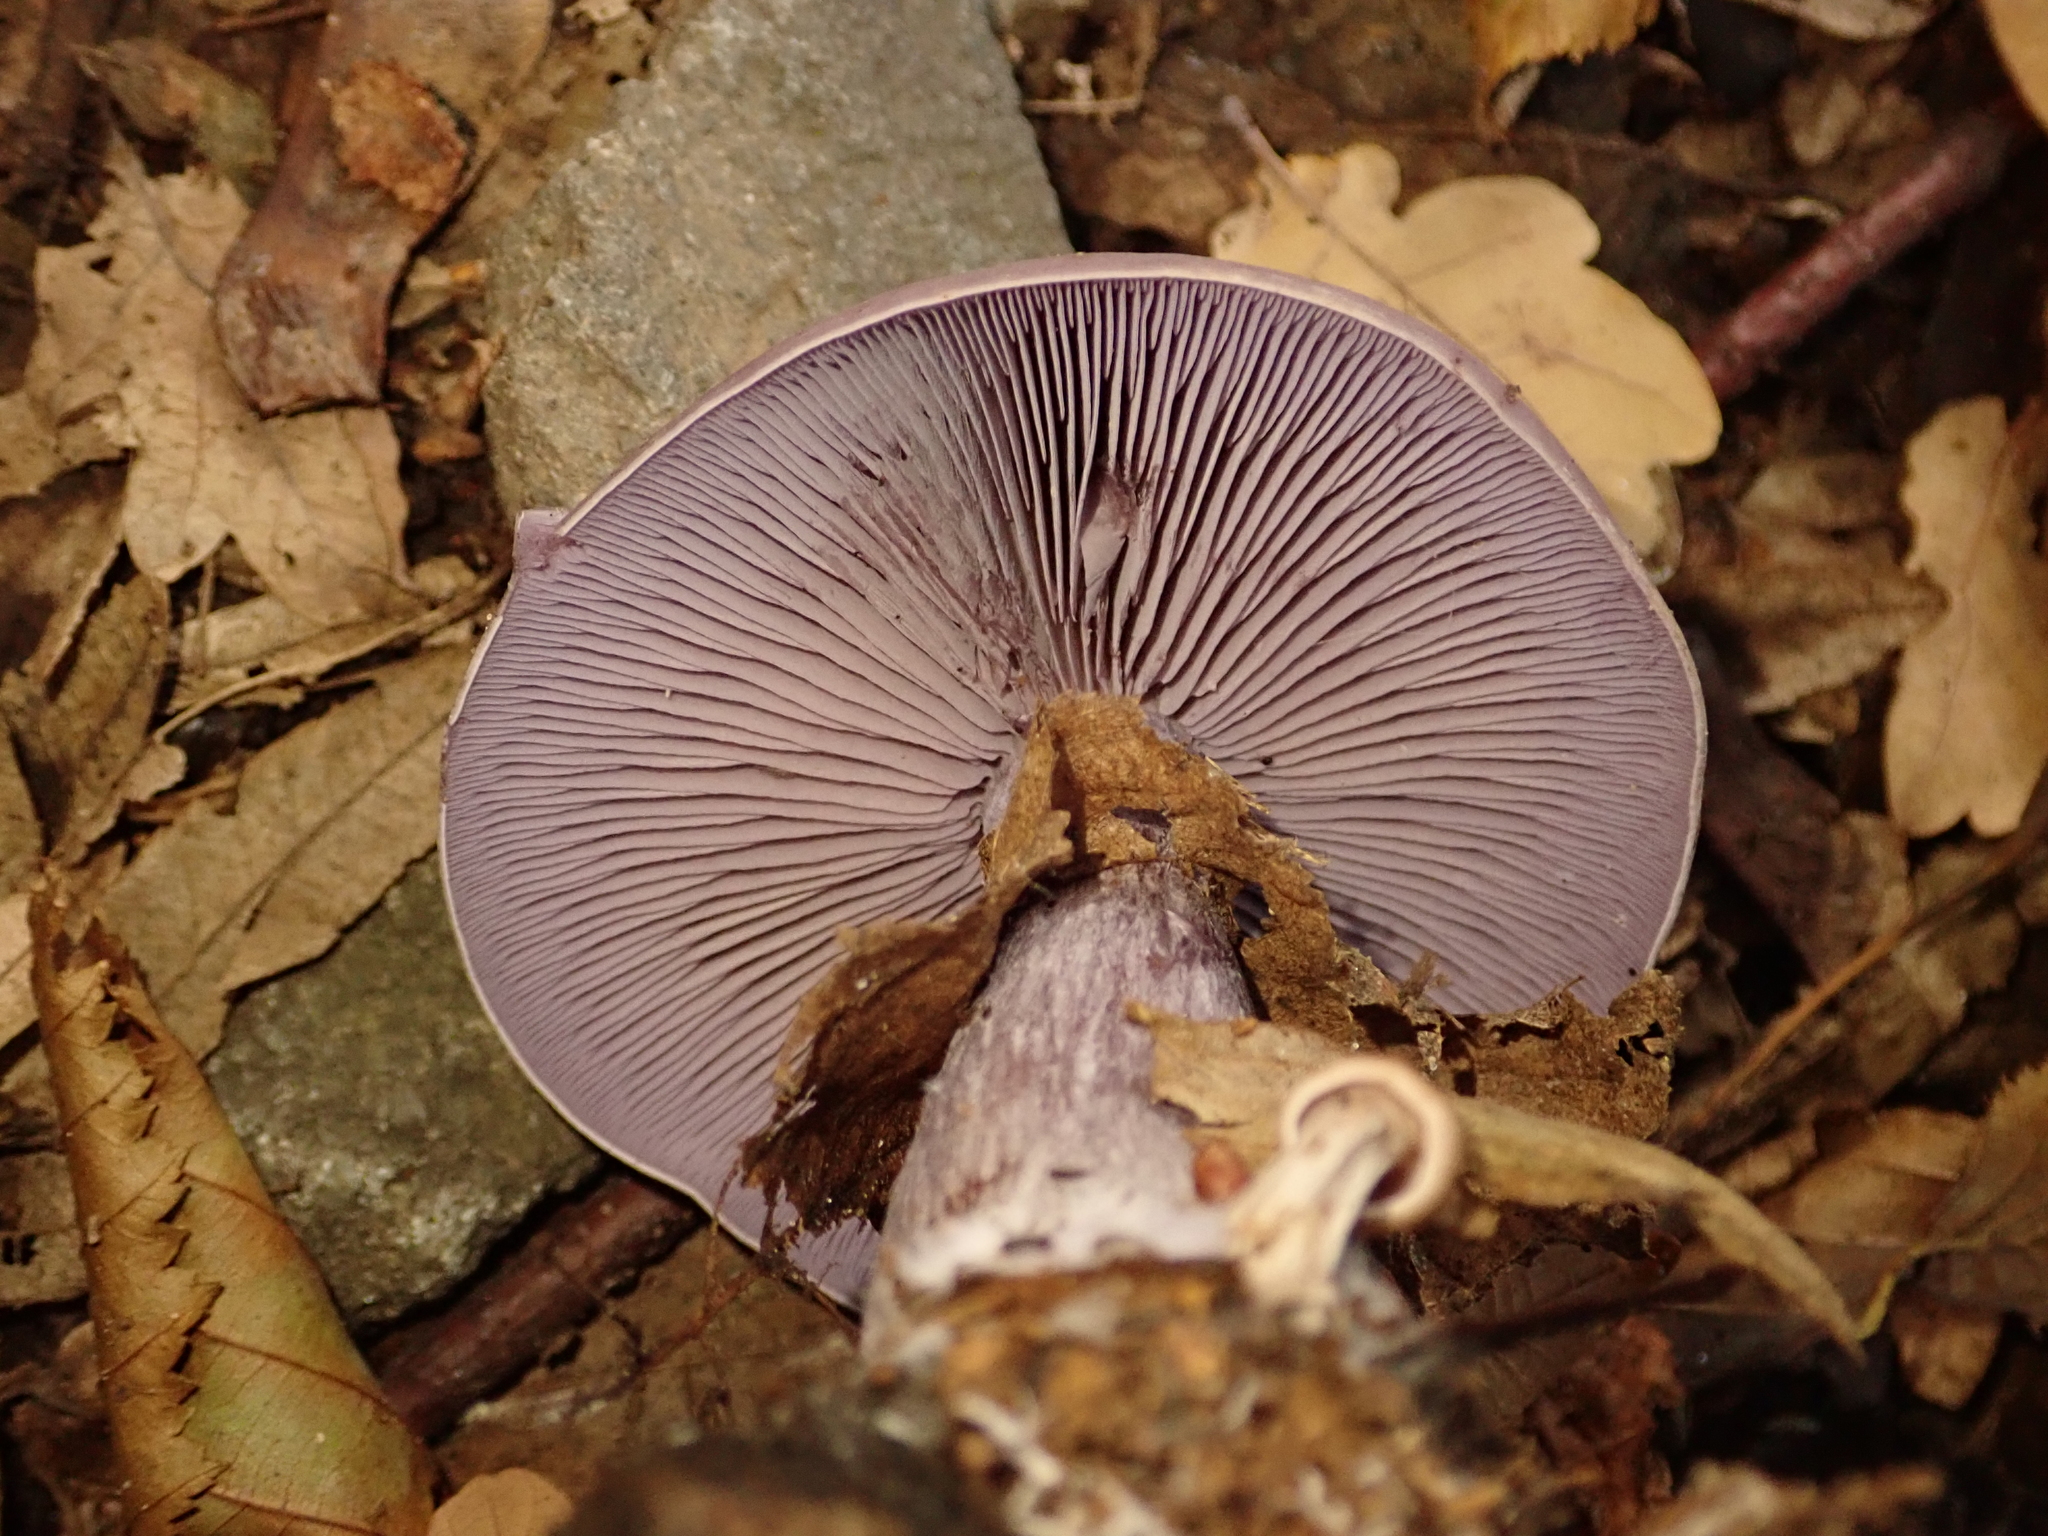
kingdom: Fungi
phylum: Basidiomycota
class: Agaricomycetes
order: Agaricales
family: Tricholomataceae
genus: Collybia
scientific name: Collybia
